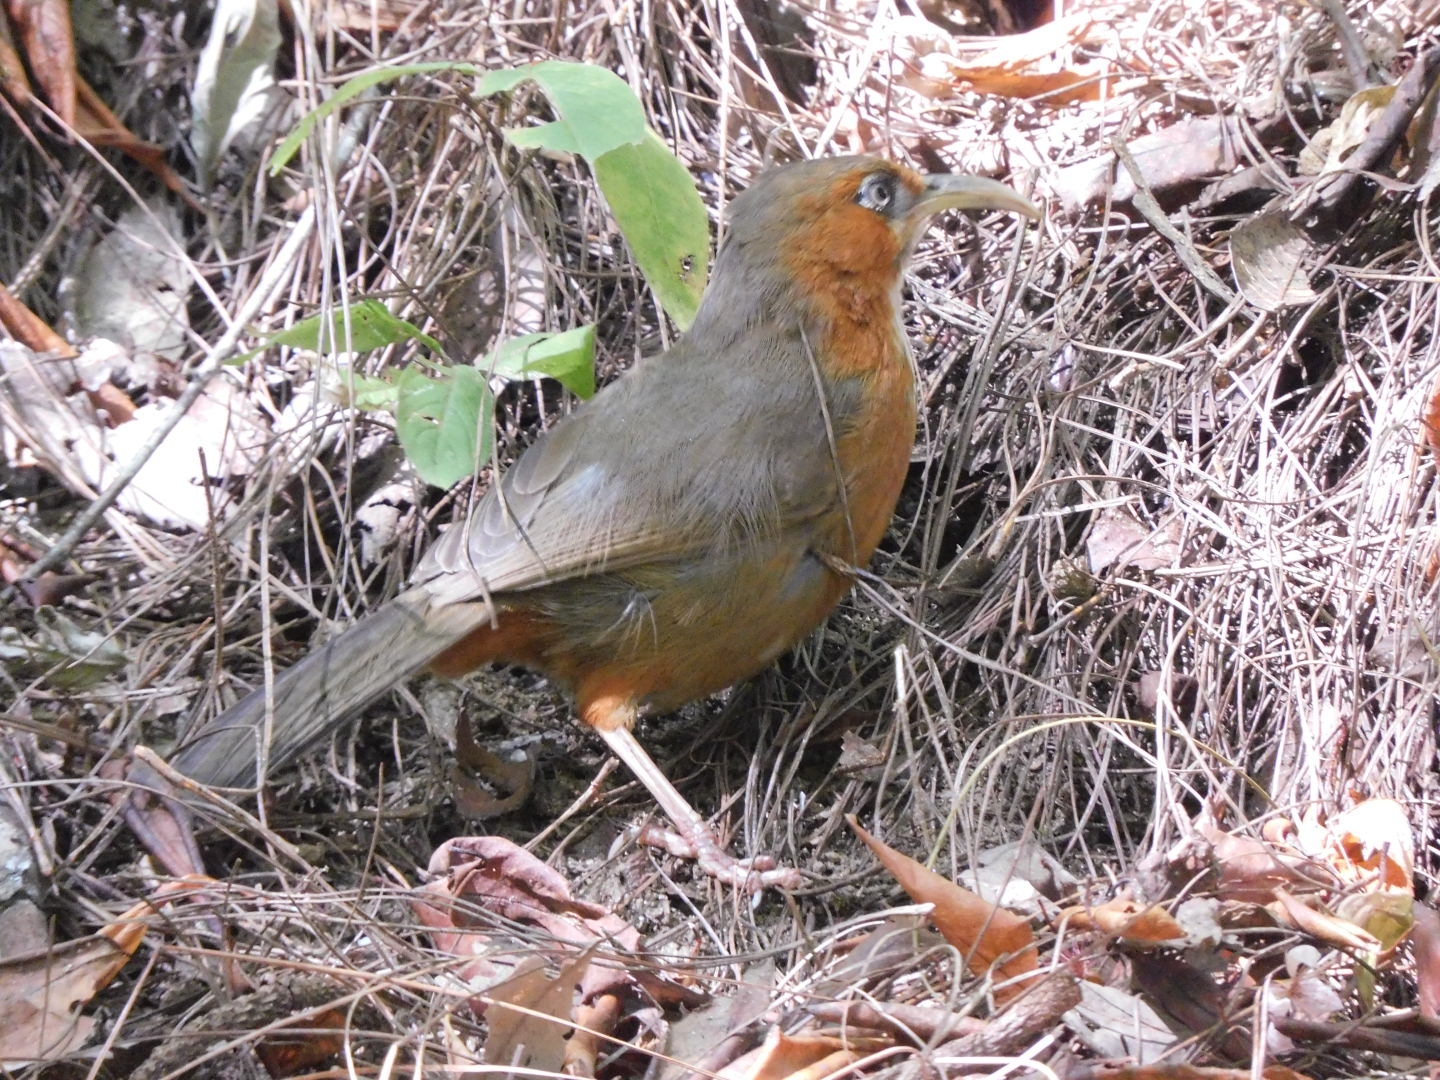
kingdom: Animalia
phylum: Chordata
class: Aves
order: Passeriformes
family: Timaliidae
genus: Pomatorhinus
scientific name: Pomatorhinus erythrogenys
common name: Rusty-cheeked scimitar babbler
